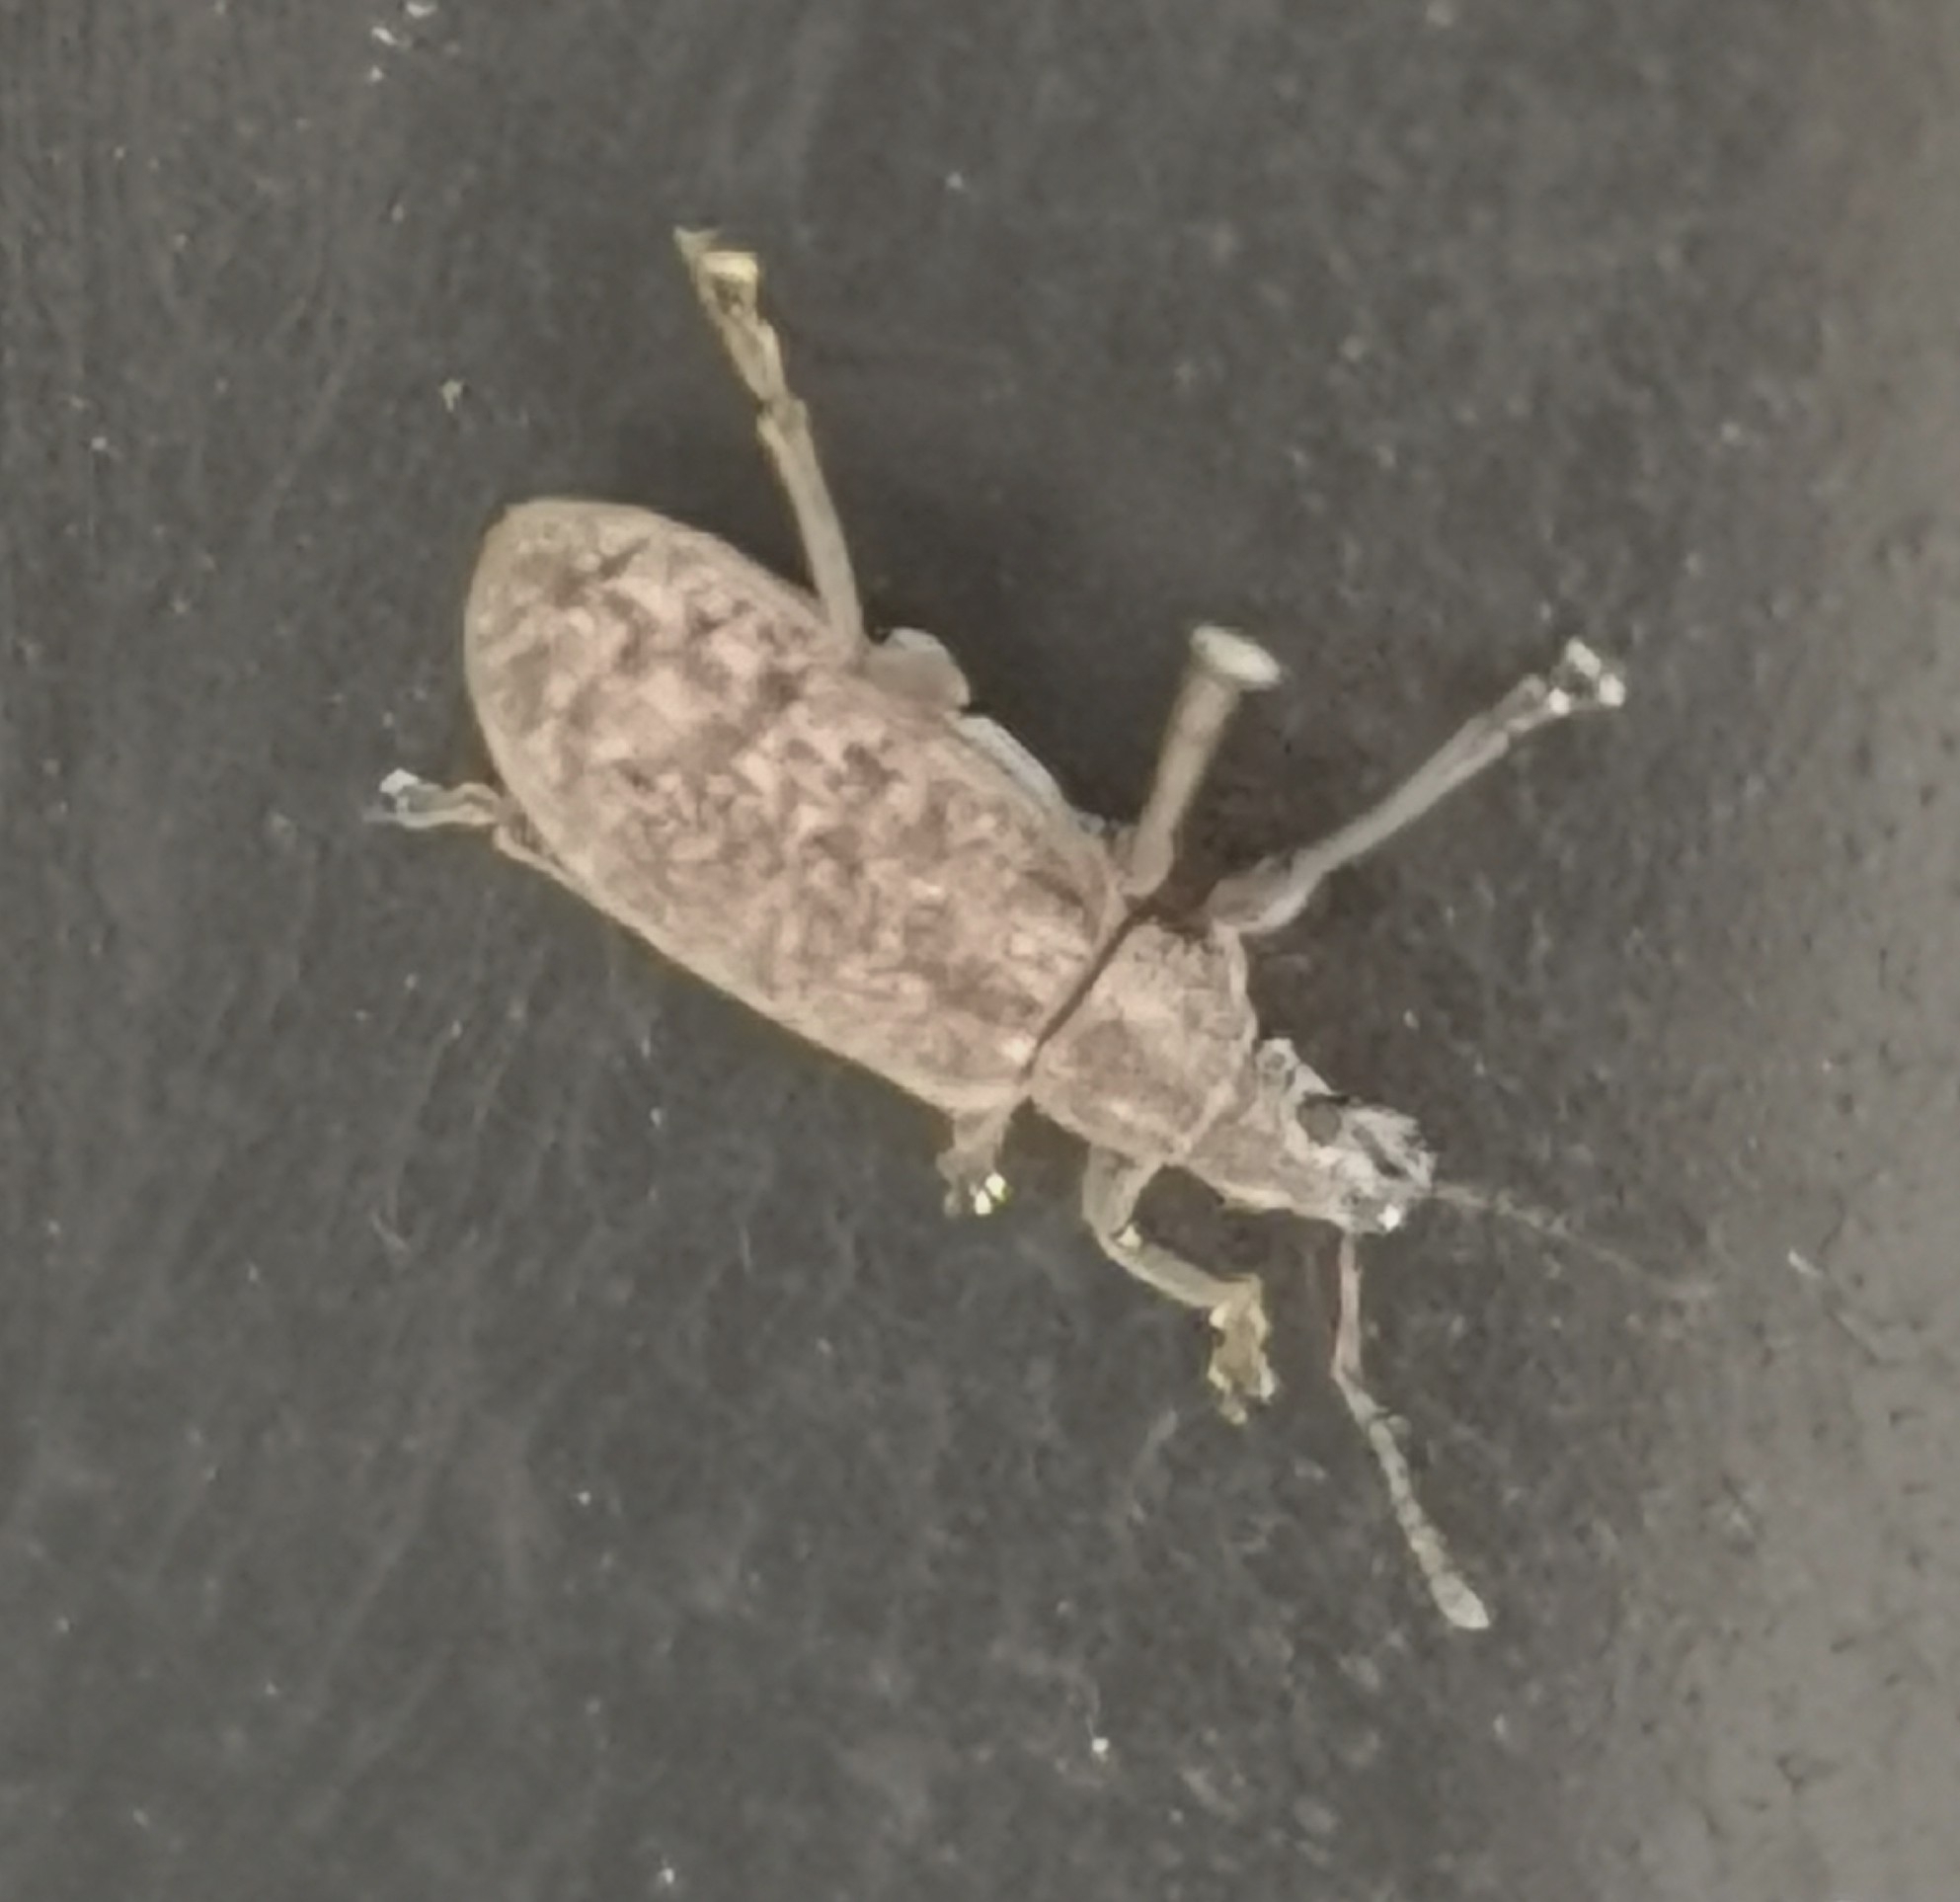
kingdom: Animalia
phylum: Arthropoda
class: Insecta
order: Coleoptera
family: Curculionidae
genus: Polydrusus
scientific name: Polydrusus pilosus
